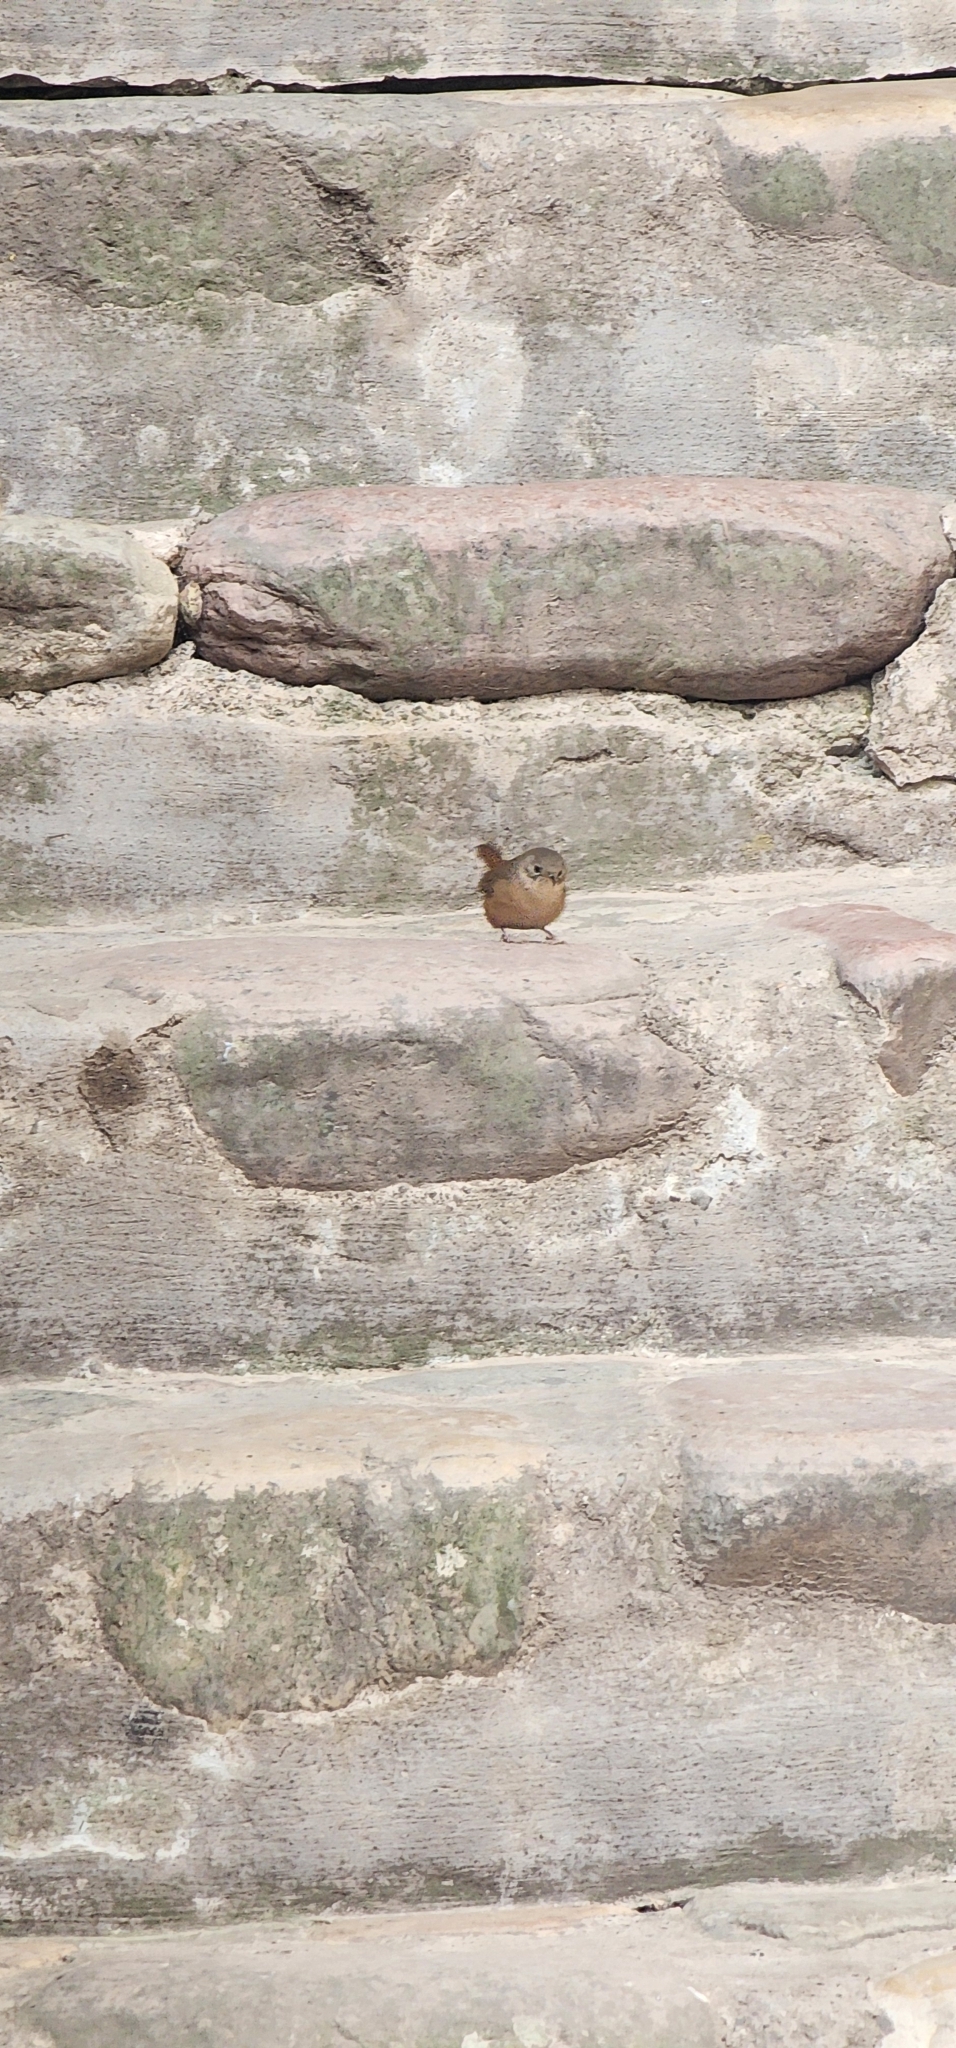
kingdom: Animalia
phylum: Chordata
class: Aves
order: Passeriformes
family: Troglodytidae
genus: Troglodytes
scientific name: Troglodytes aedon
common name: House wren
